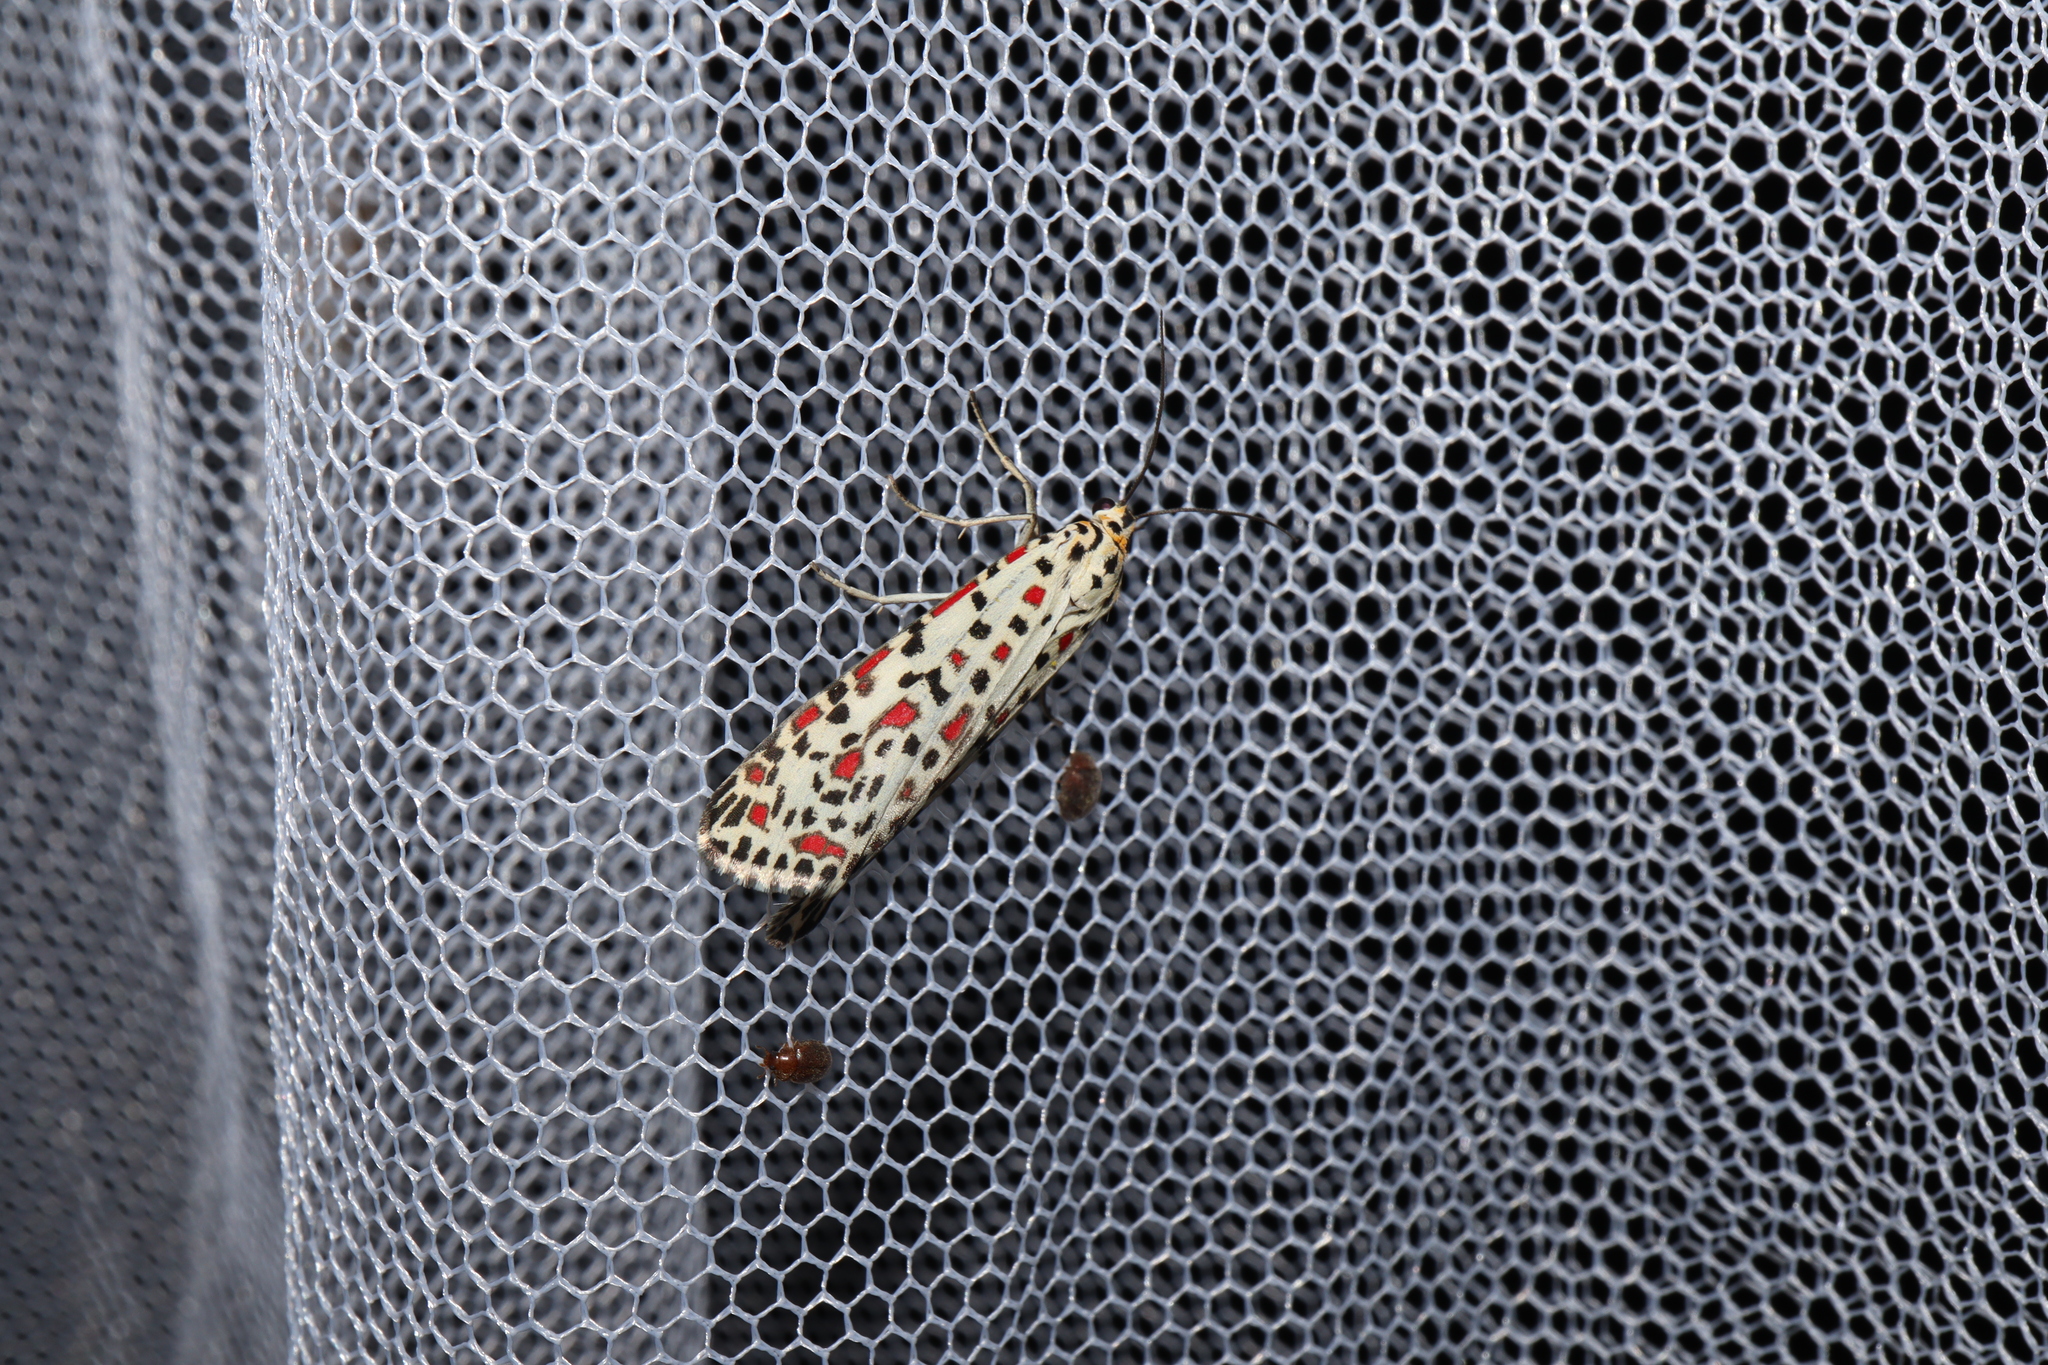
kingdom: Animalia
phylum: Arthropoda
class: Insecta
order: Lepidoptera
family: Erebidae
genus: Utetheisa
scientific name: Utetheisa pulchelloides
